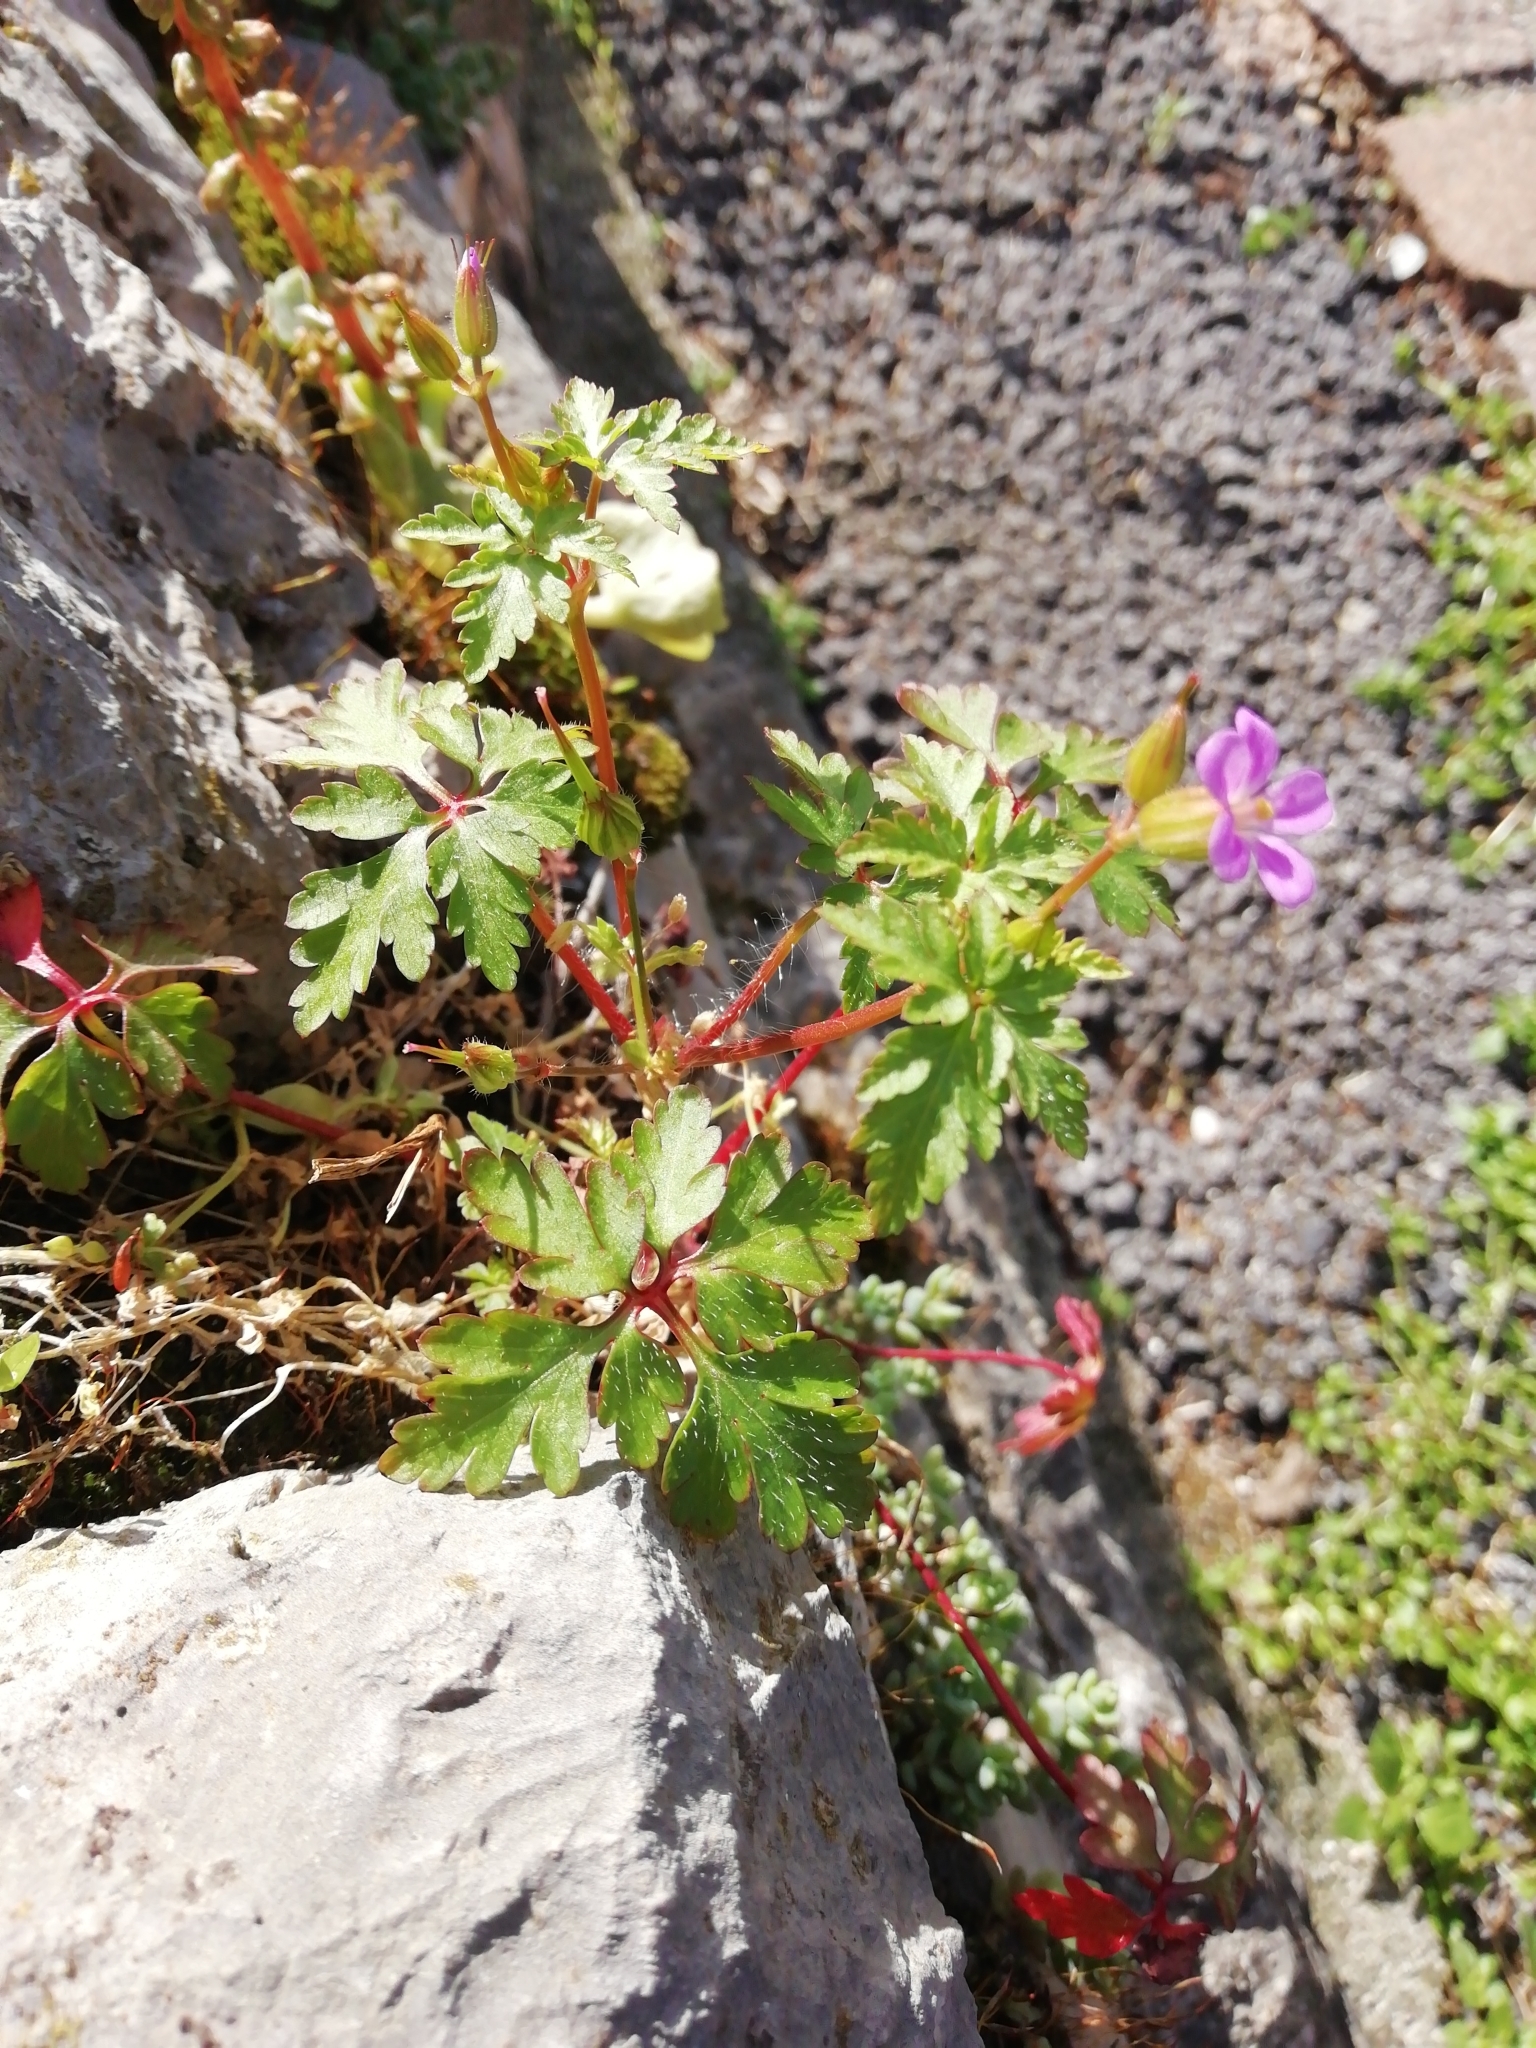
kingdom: Plantae
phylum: Tracheophyta
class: Magnoliopsida
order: Geraniales
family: Geraniaceae
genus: Geranium
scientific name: Geranium purpureum
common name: Little-robin
